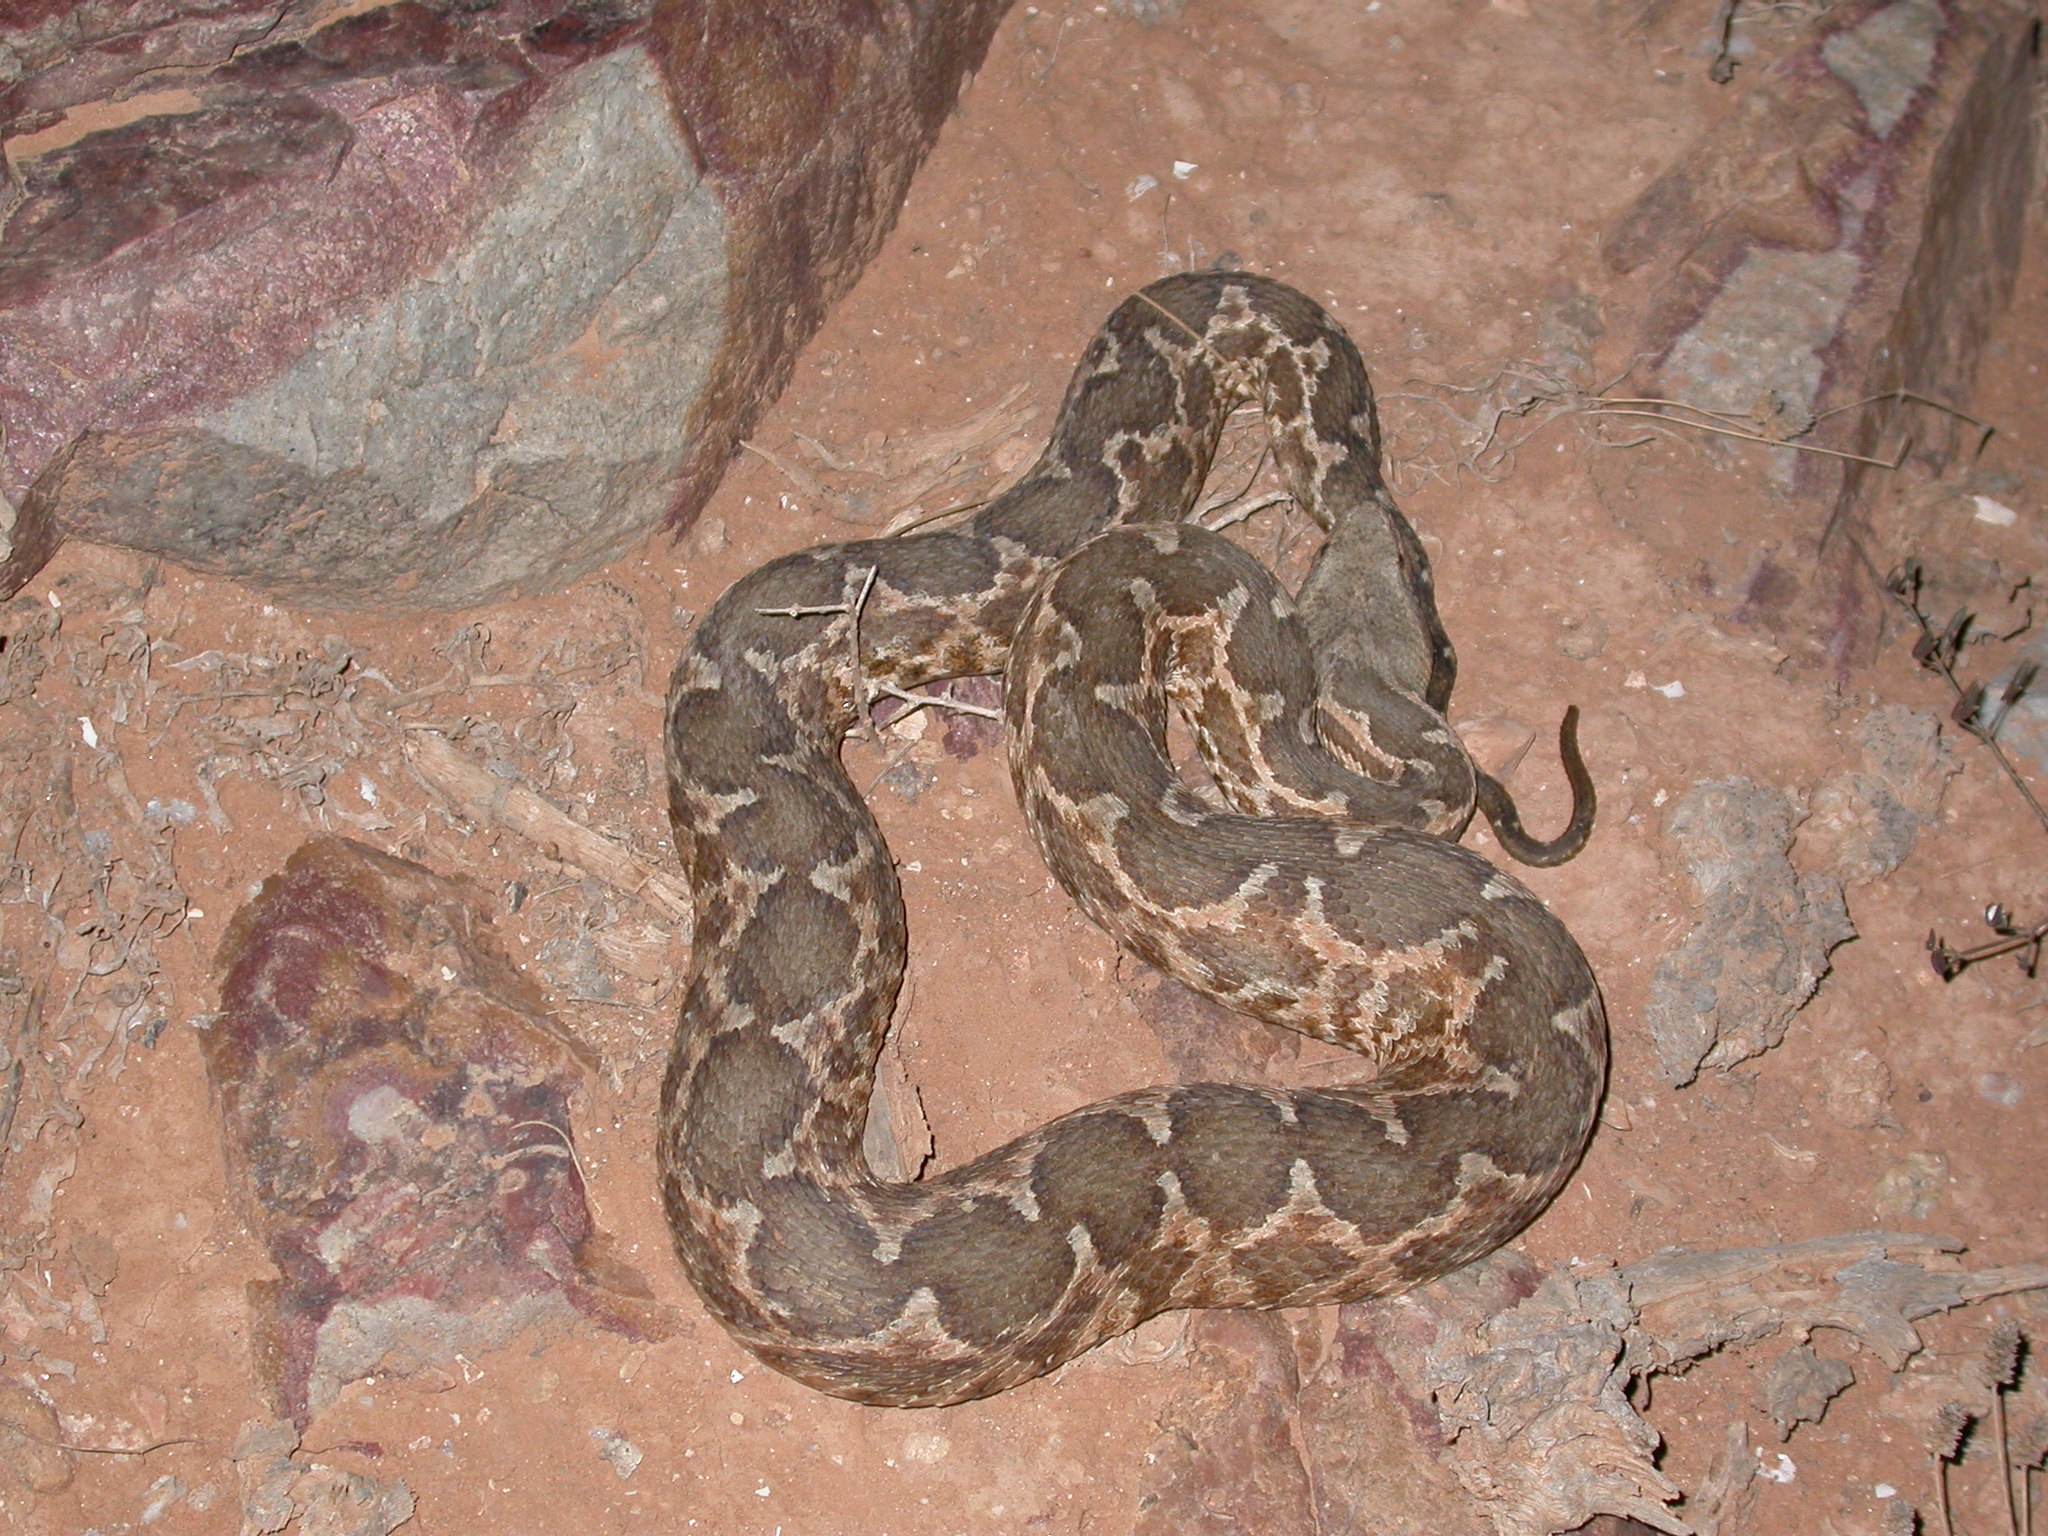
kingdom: Animalia
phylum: Chordata
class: Squamata
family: Viperidae
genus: Daboia
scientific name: Daboia mauritanica
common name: Moorish viper
